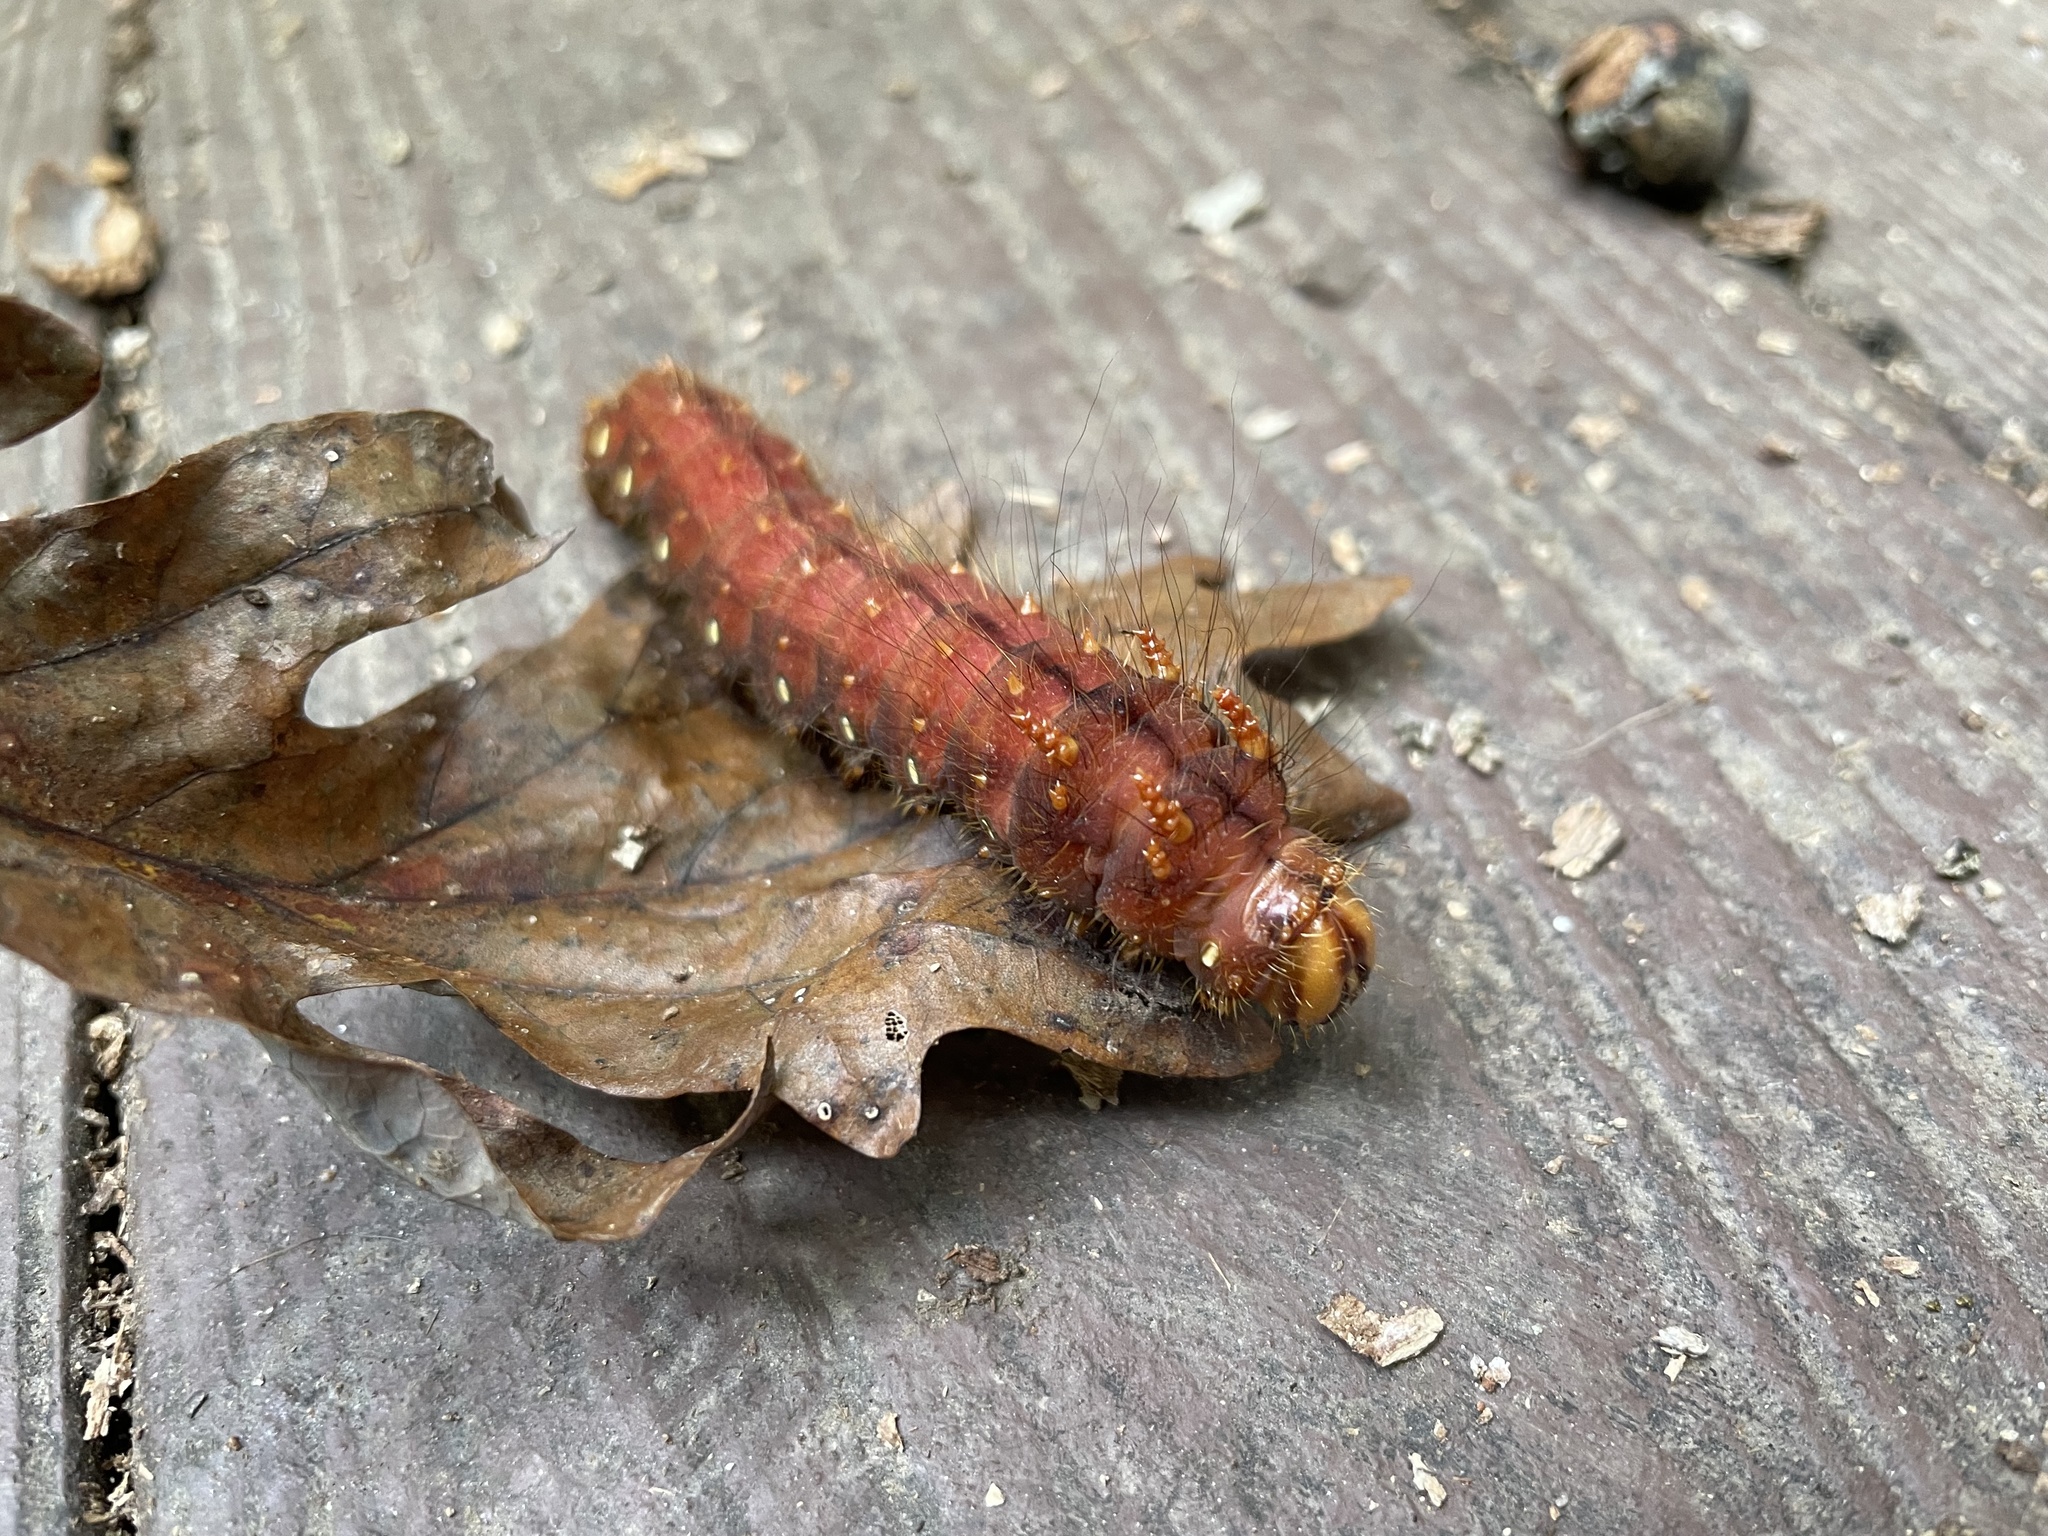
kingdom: Animalia
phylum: Arthropoda
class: Insecta
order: Lepidoptera
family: Saturniidae
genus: Eacles
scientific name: Eacles imperialis
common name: Imperial moth
